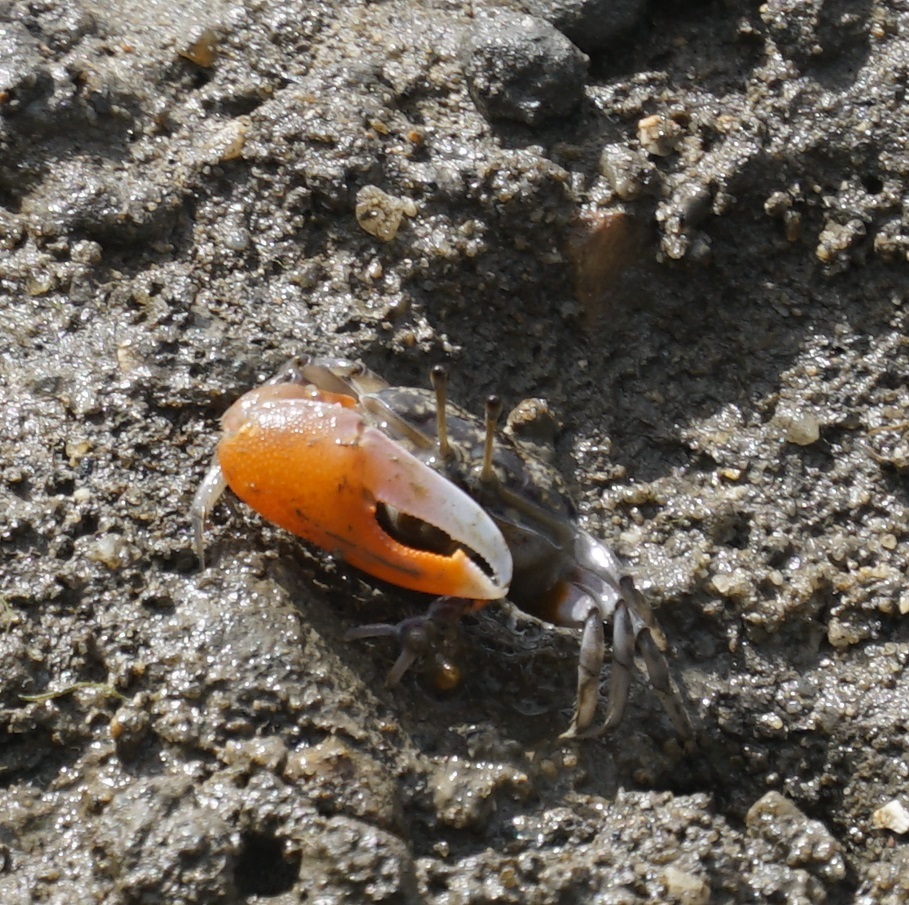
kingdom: Animalia
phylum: Arthropoda
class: Malacostraca
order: Decapoda
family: Ocypodidae
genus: Gelasimus
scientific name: Gelasimus vomeris
